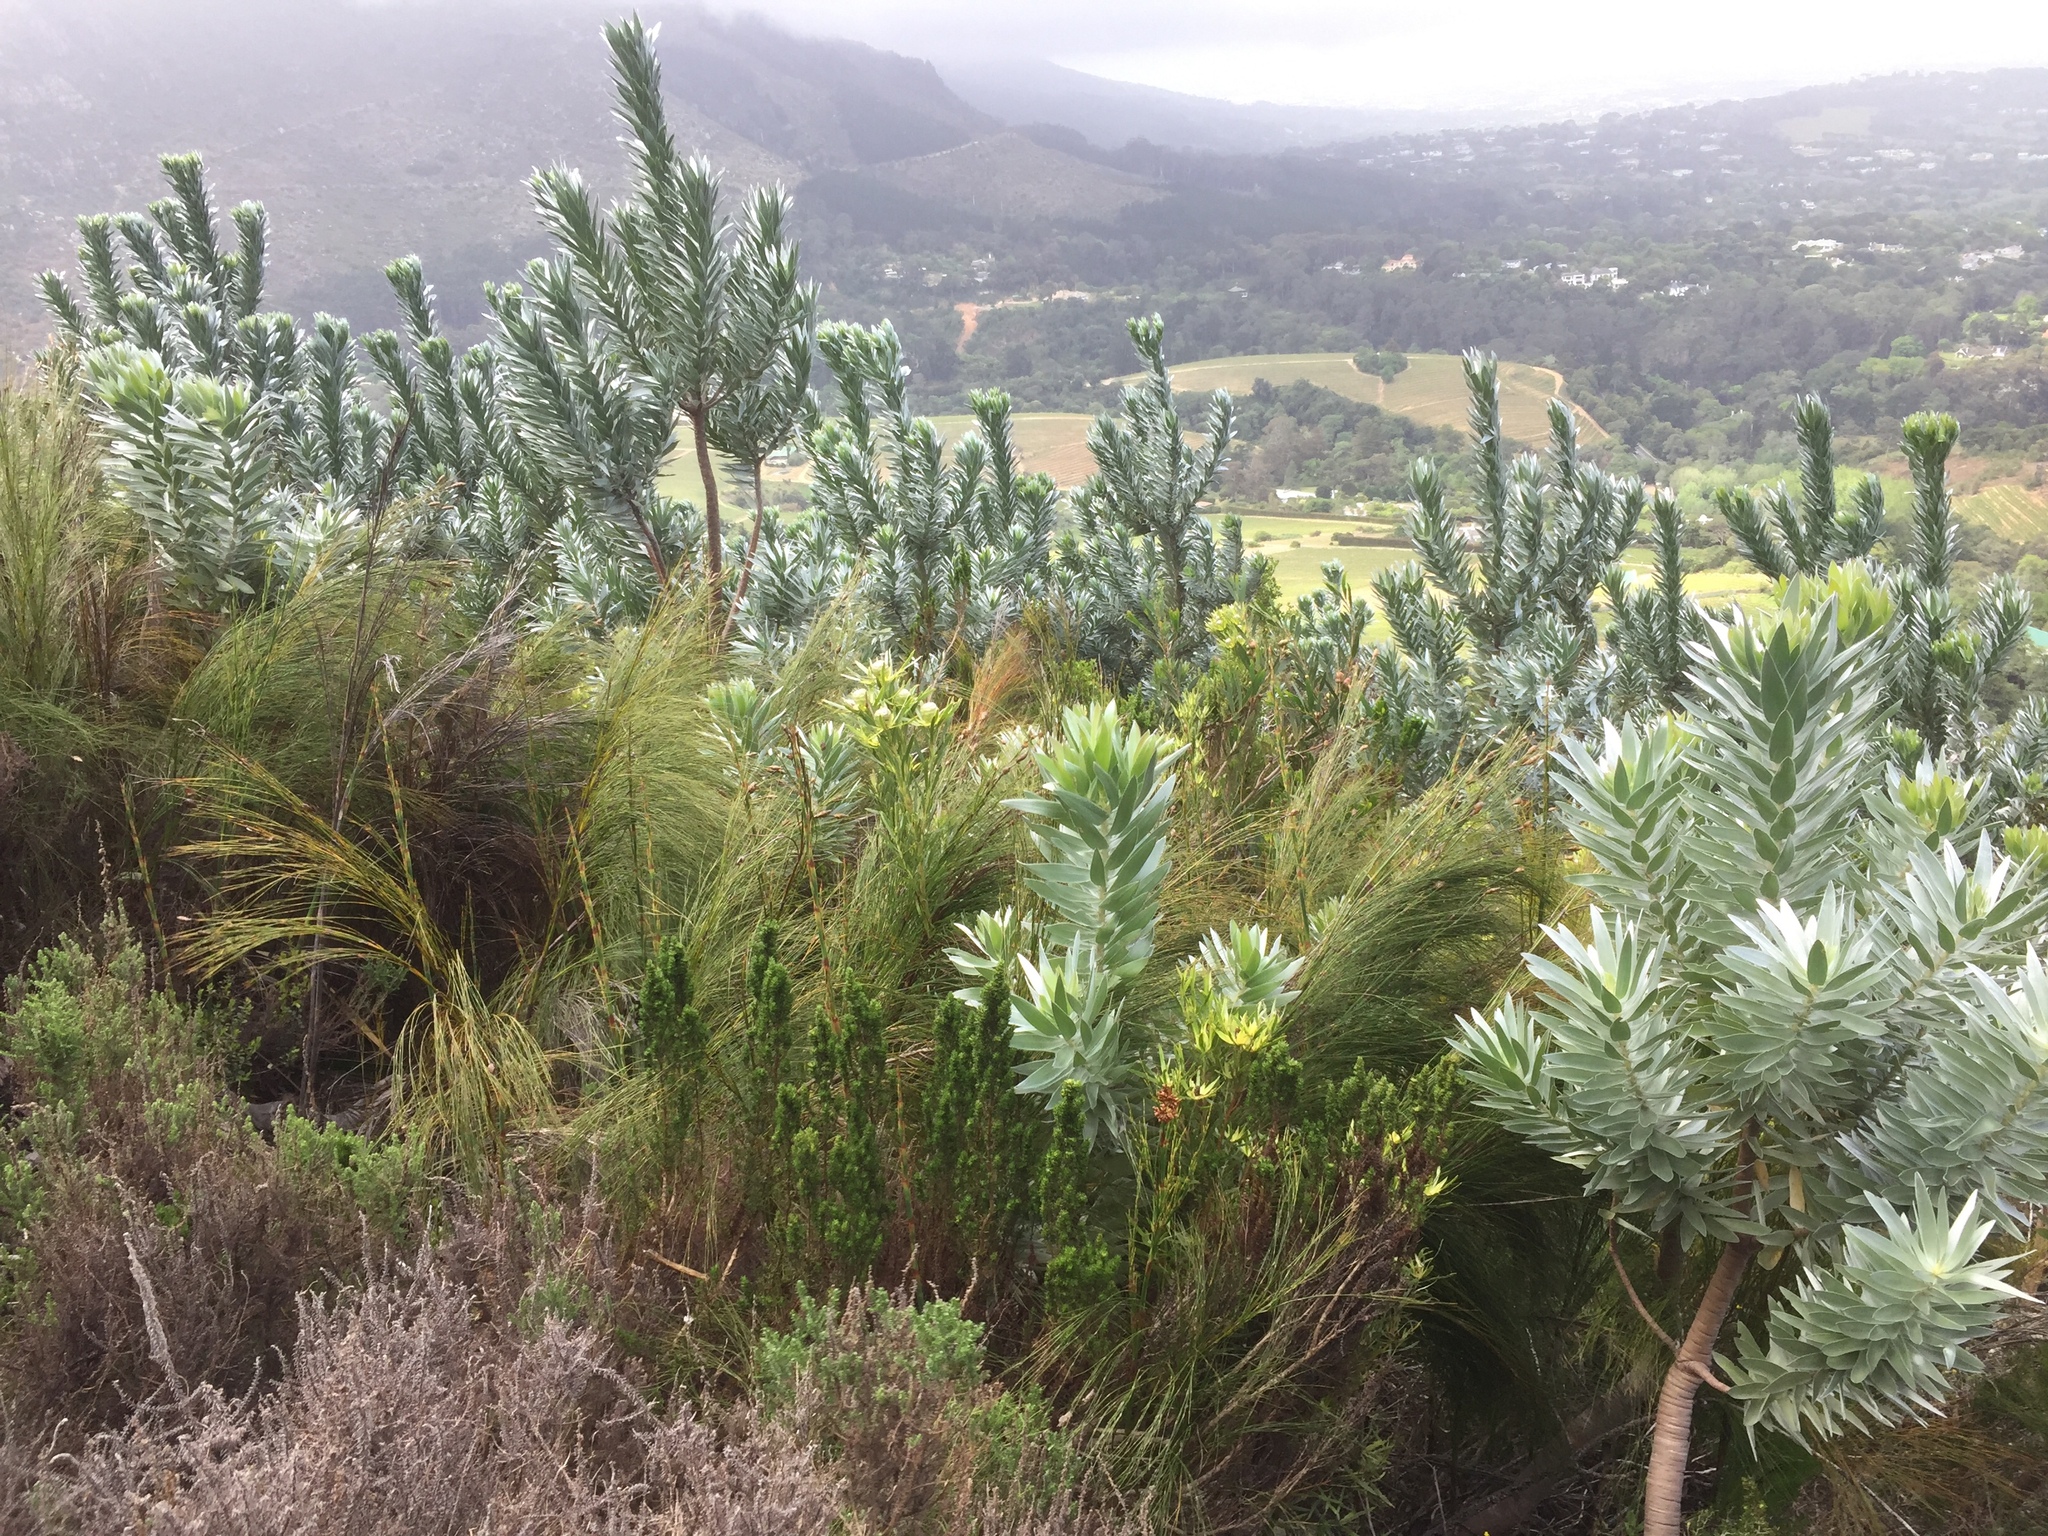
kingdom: Plantae
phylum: Tracheophyta
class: Magnoliopsida
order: Proteales
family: Proteaceae
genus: Leucadendron
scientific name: Leucadendron argenteum
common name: Cape silver tree
